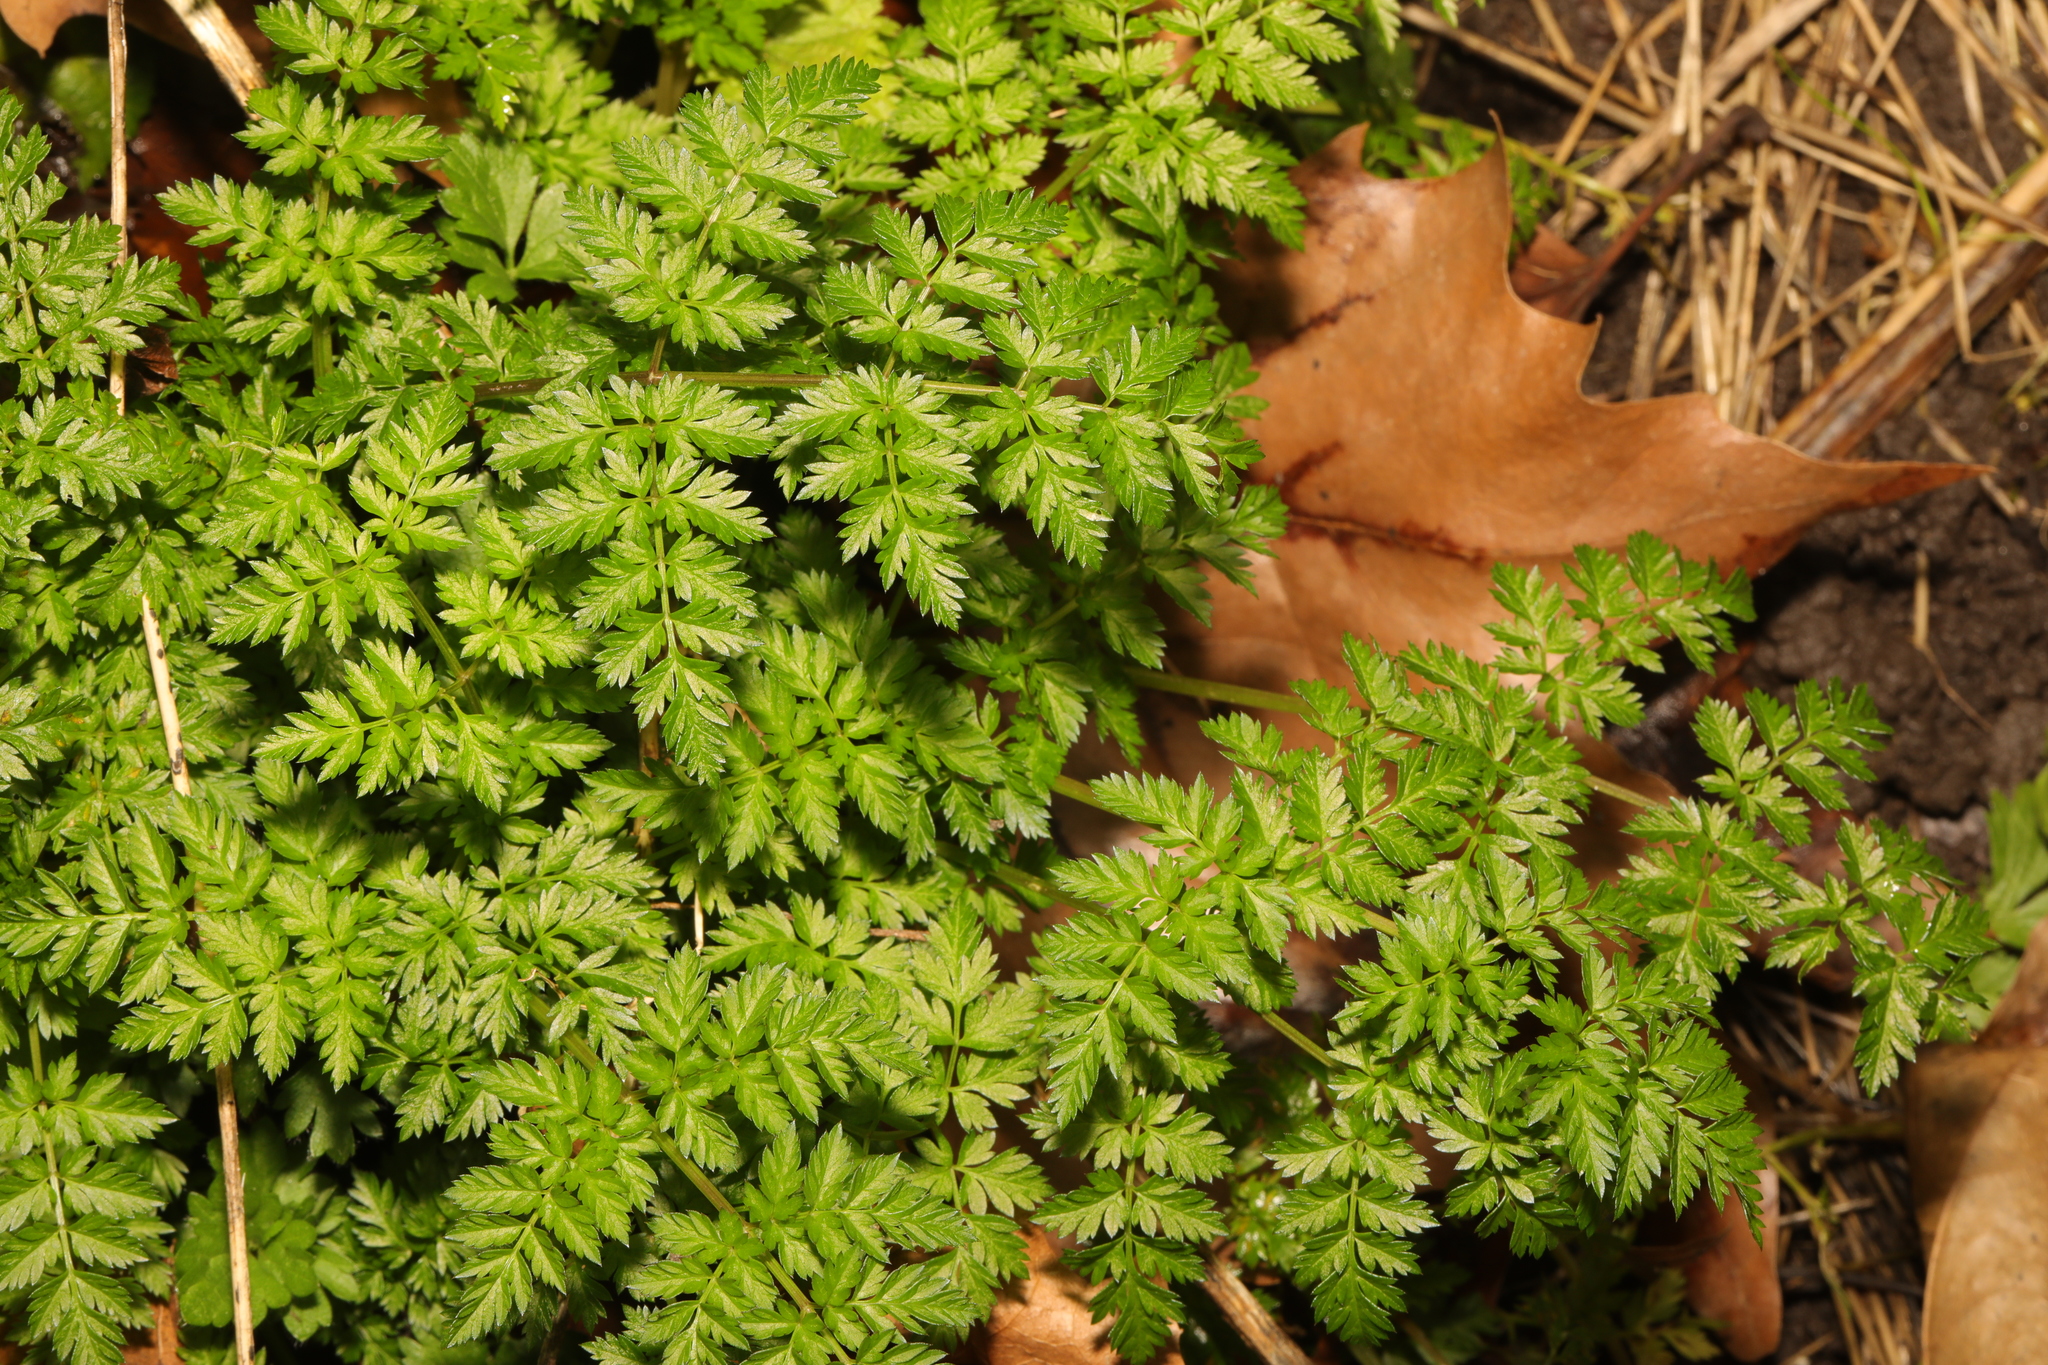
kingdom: Plantae
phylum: Tracheophyta
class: Magnoliopsida
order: Apiales
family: Apiaceae
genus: Anthriscus
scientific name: Anthriscus sylvestris
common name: Cow parsley
